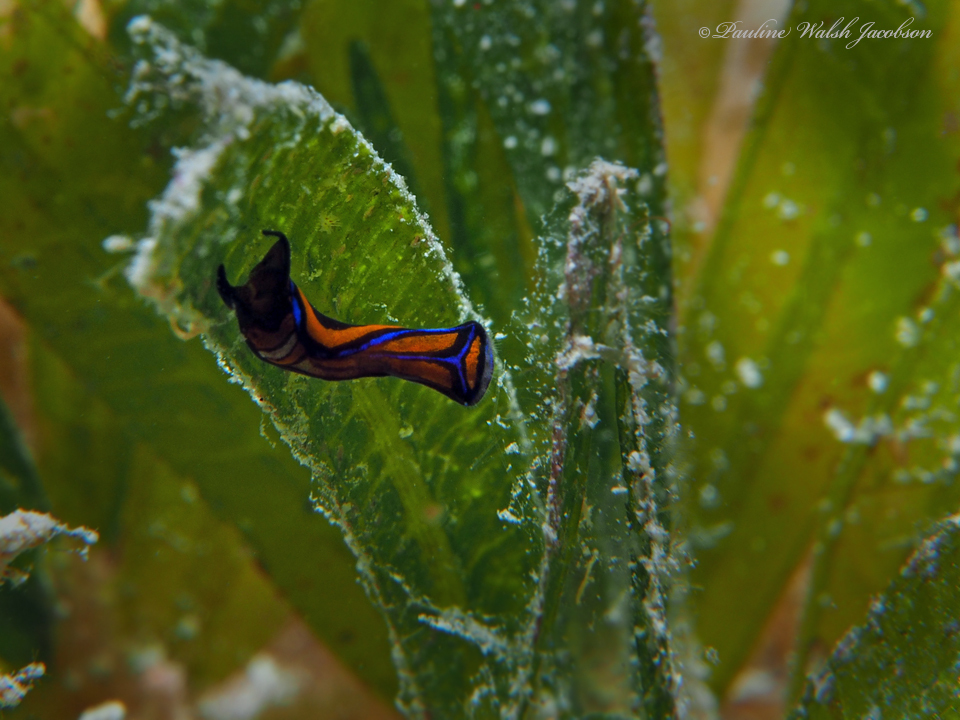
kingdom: Animalia
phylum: Mollusca
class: Gastropoda
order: Cephalaspidea
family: Aglajidae
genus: Chelidonura
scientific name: Chelidonura hirundinina
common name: Leech headshield slug
